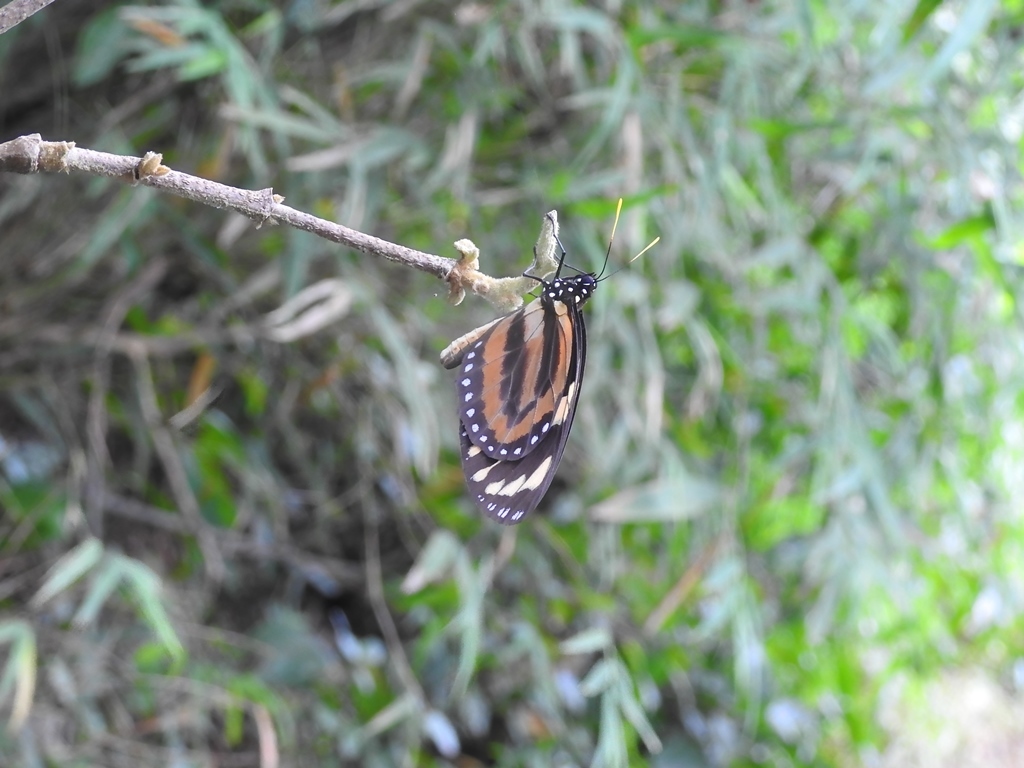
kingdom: Animalia
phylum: Arthropoda
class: Insecta
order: Lepidoptera
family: Nymphalidae
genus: Lycorea
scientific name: Lycorea cleobaea
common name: Tiger mimic-queen
